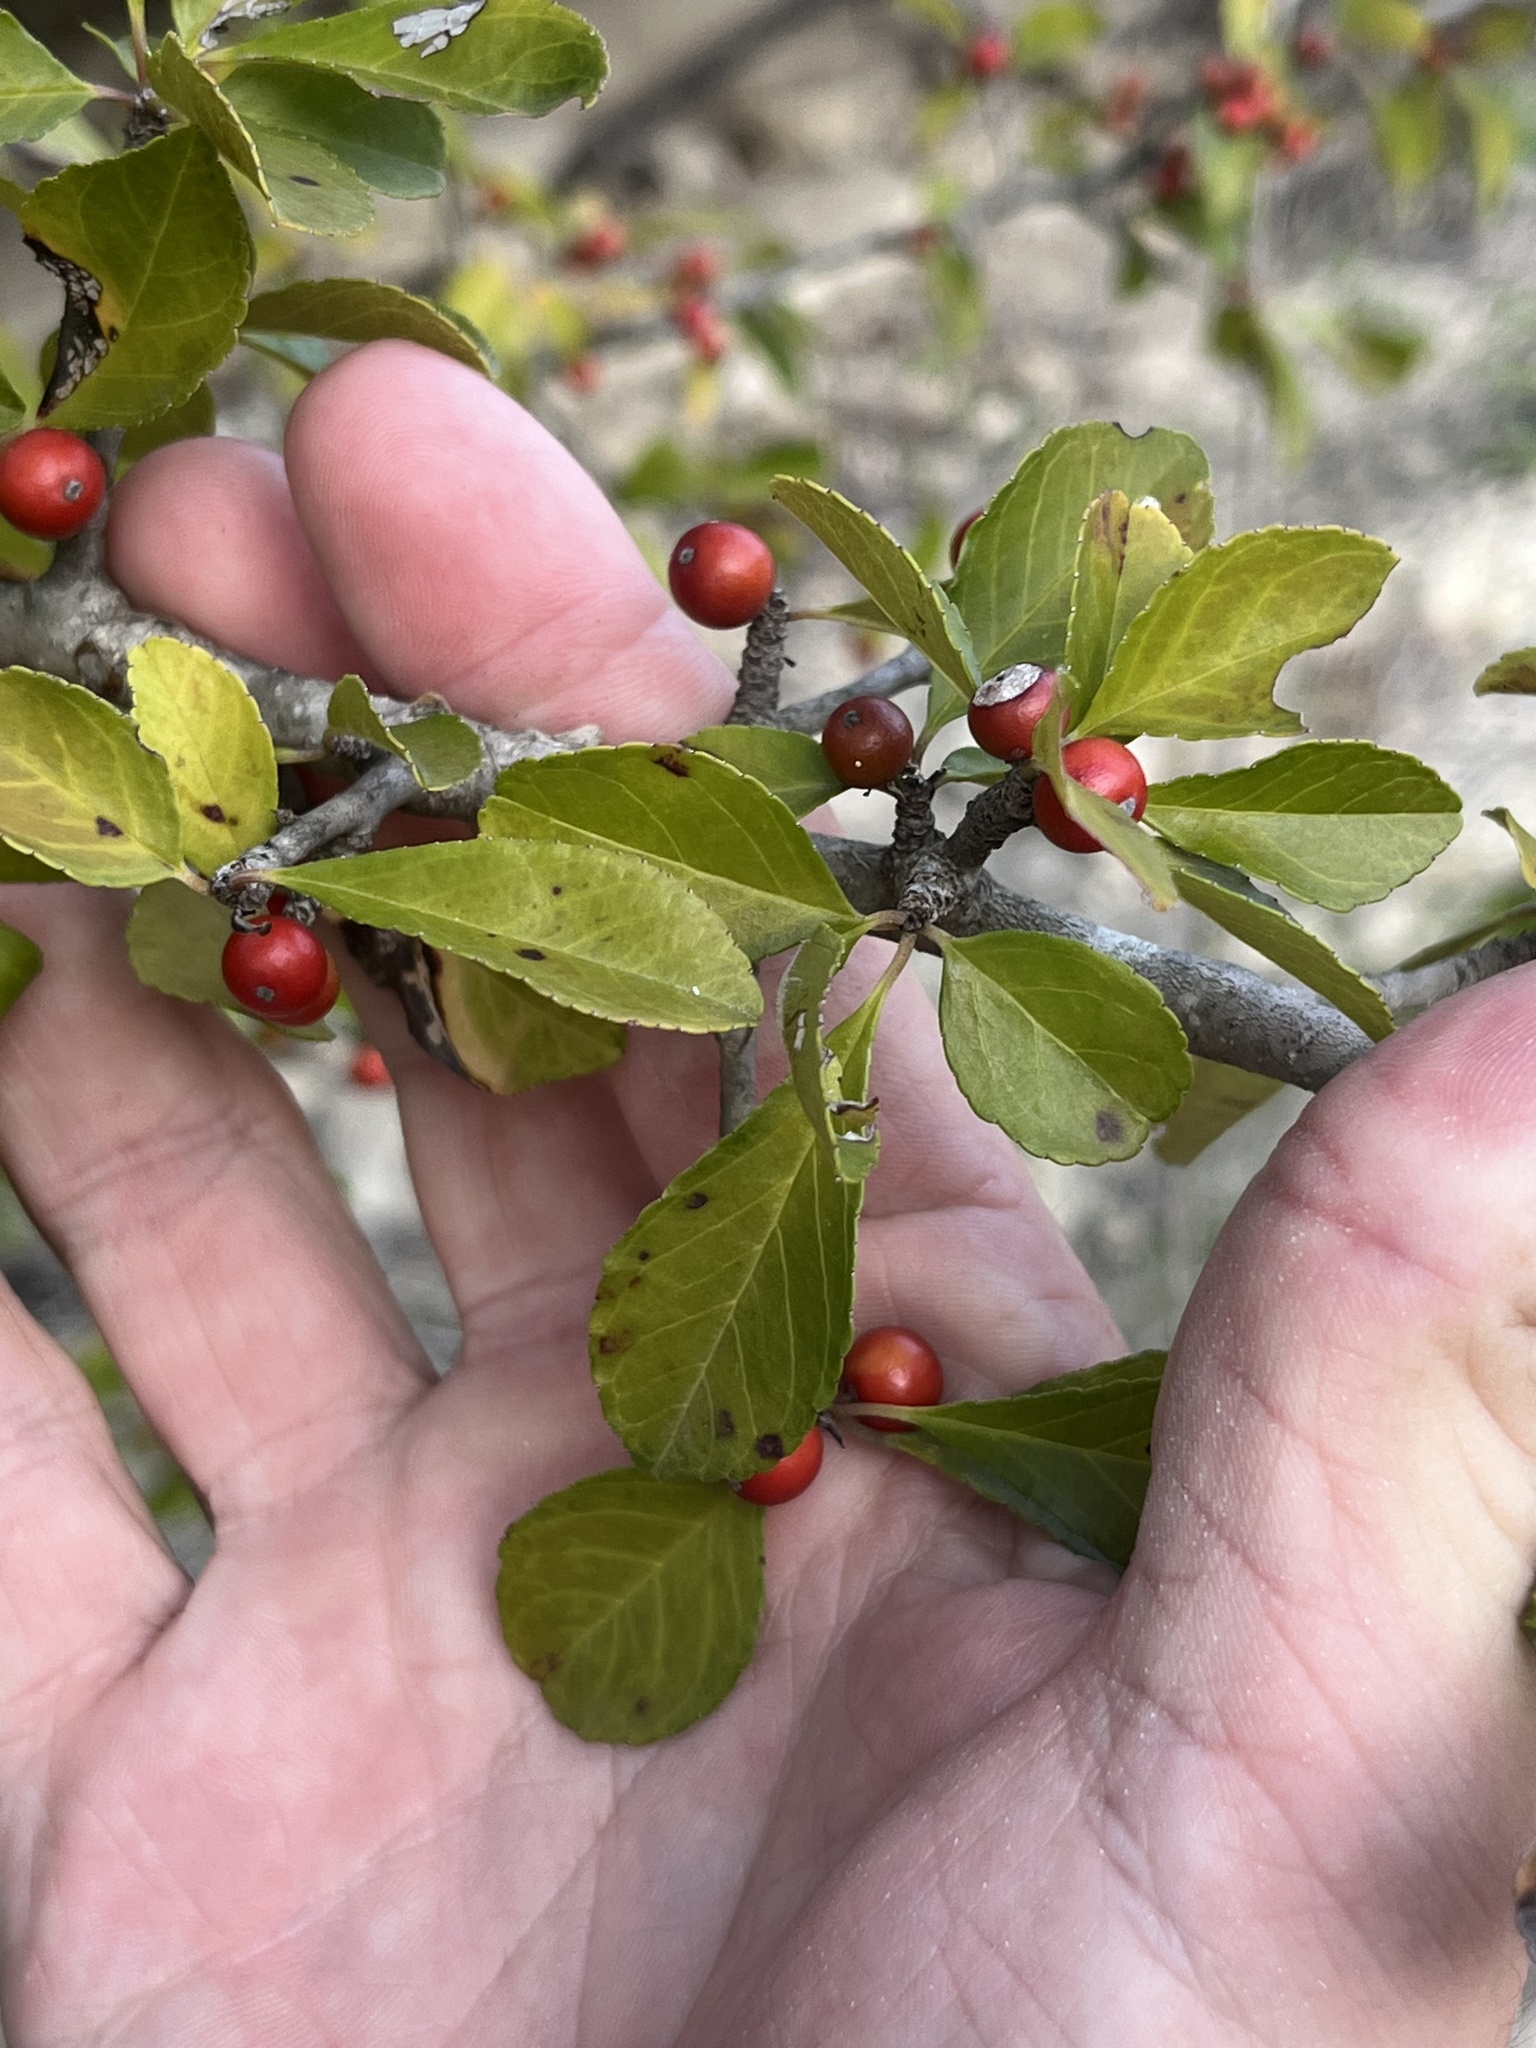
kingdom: Plantae
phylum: Tracheophyta
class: Magnoliopsida
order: Aquifoliales
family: Aquifoliaceae
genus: Ilex
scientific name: Ilex decidua
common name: Possum-haw
